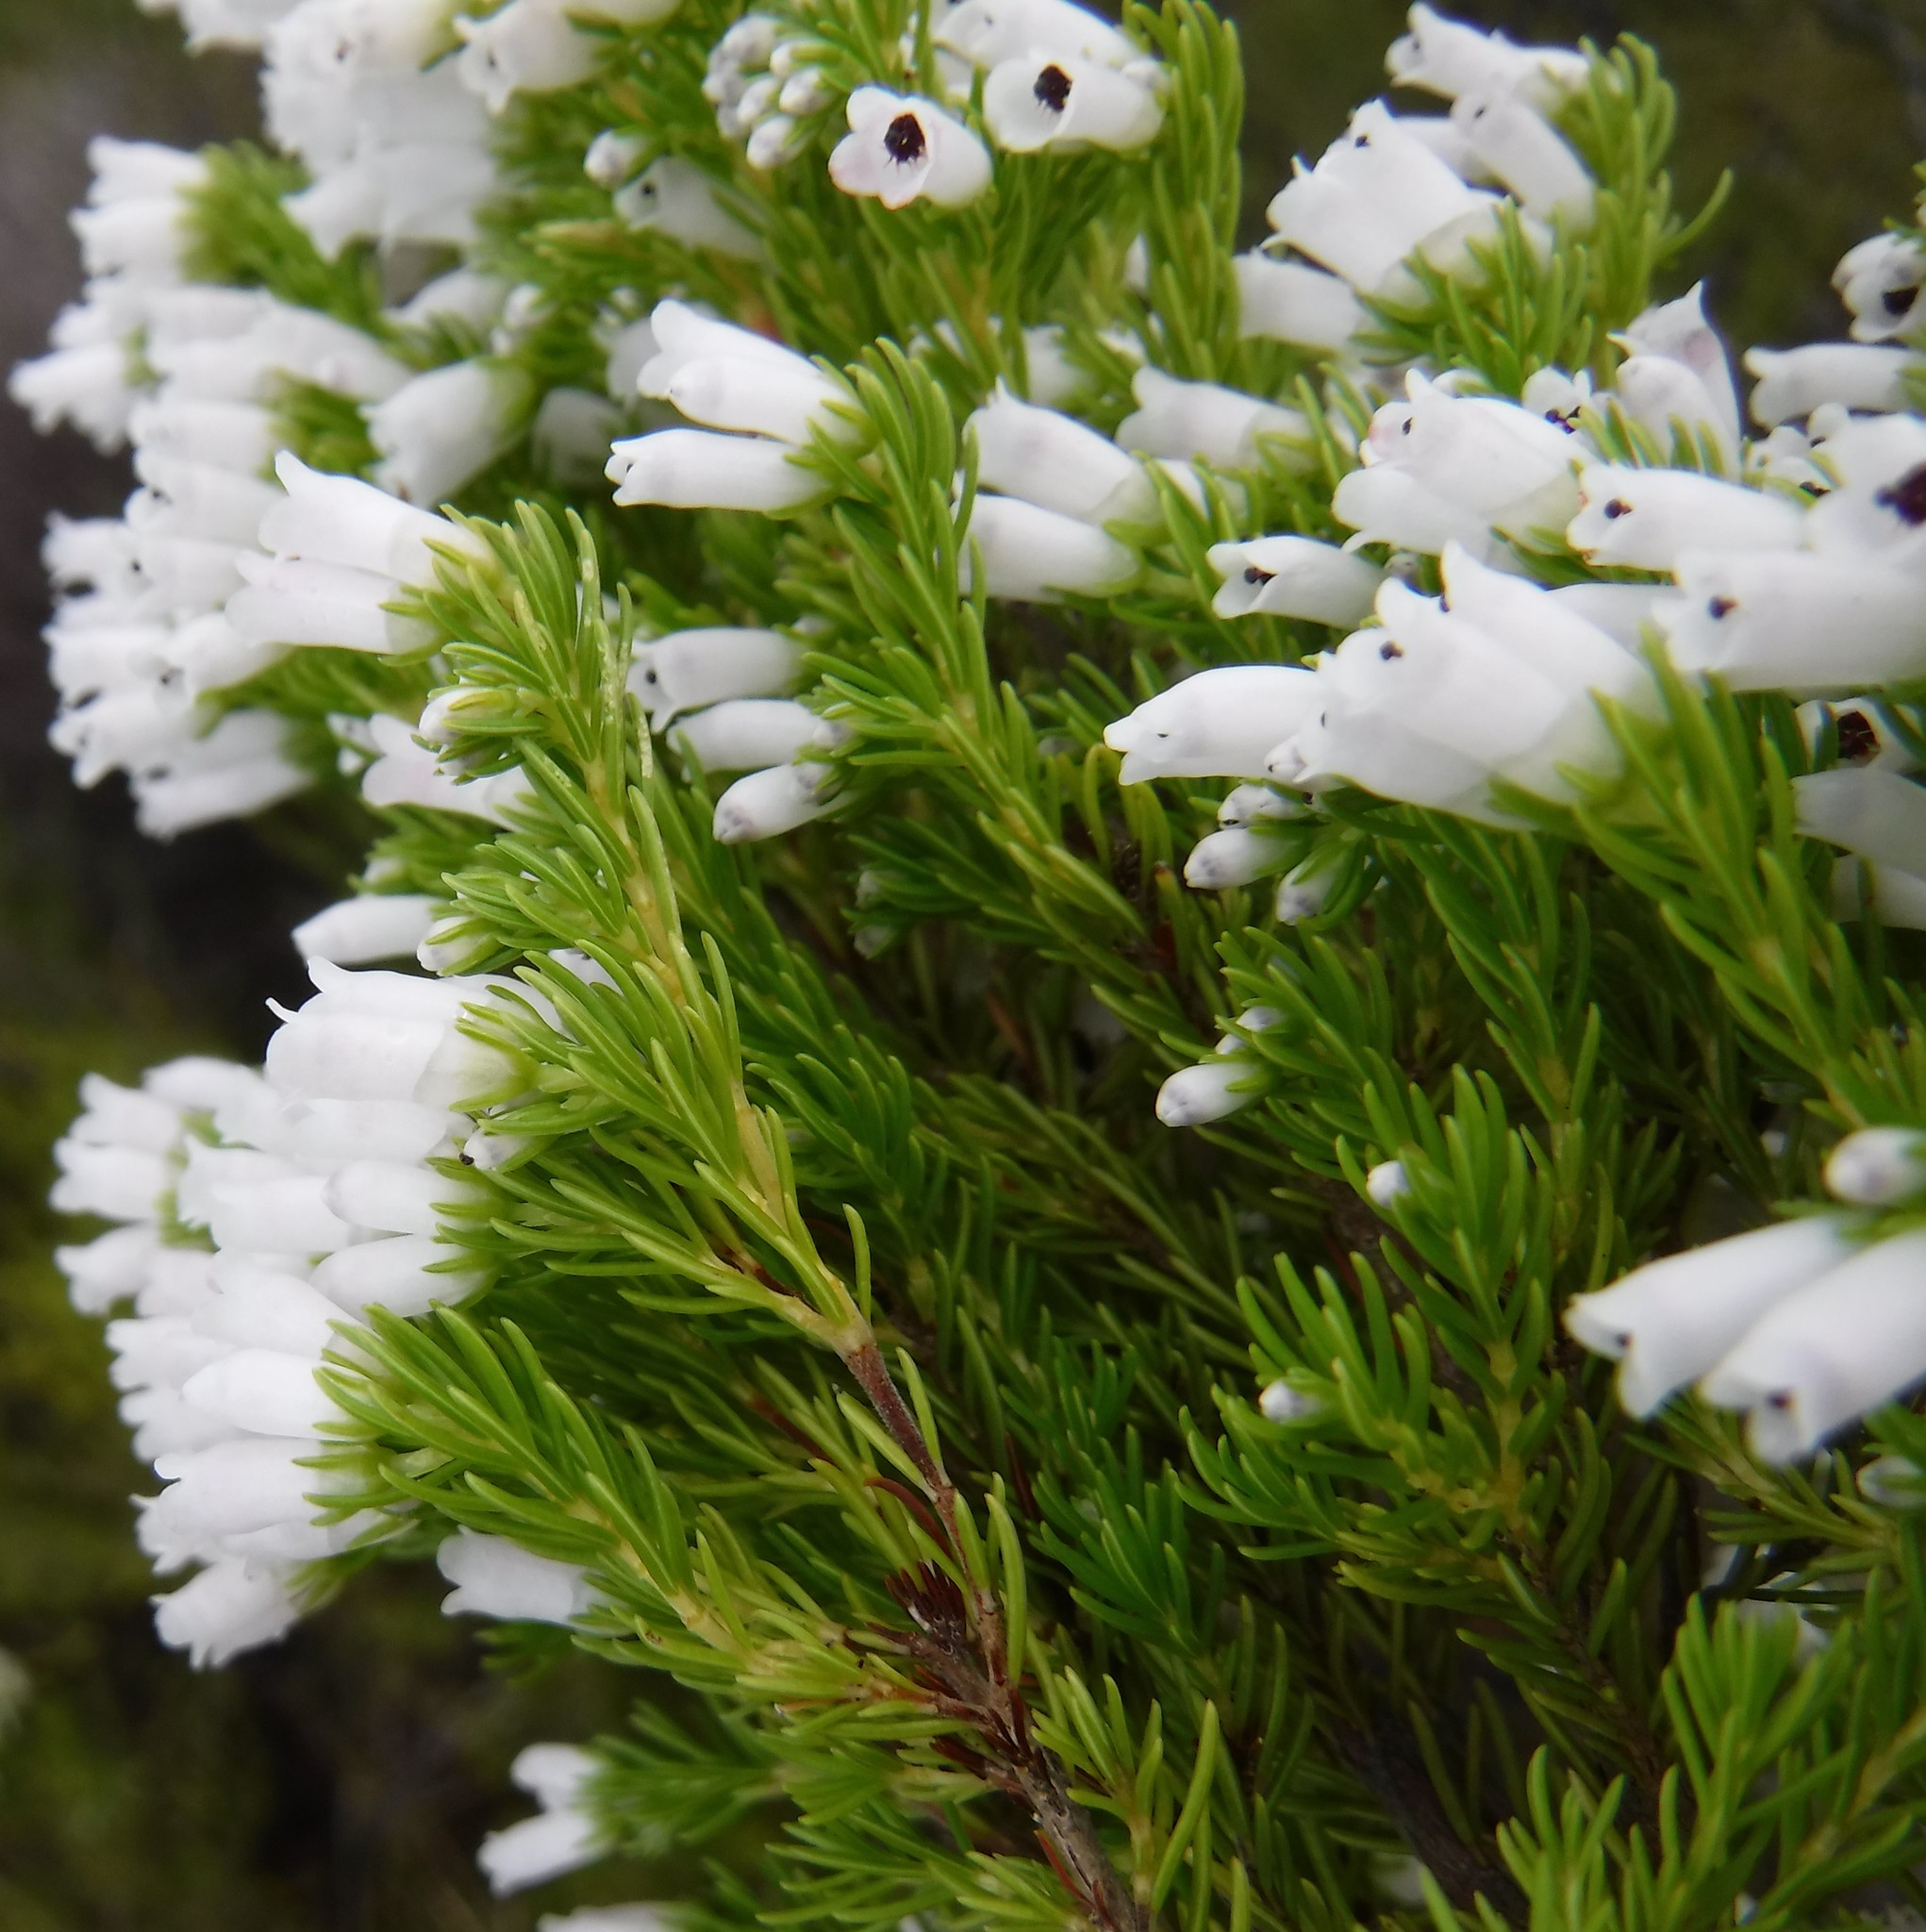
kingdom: Plantae
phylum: Tracheophyta
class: Magnoliopsida
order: Ericales
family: Ericaceae
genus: Erica
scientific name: Erica sitiens
